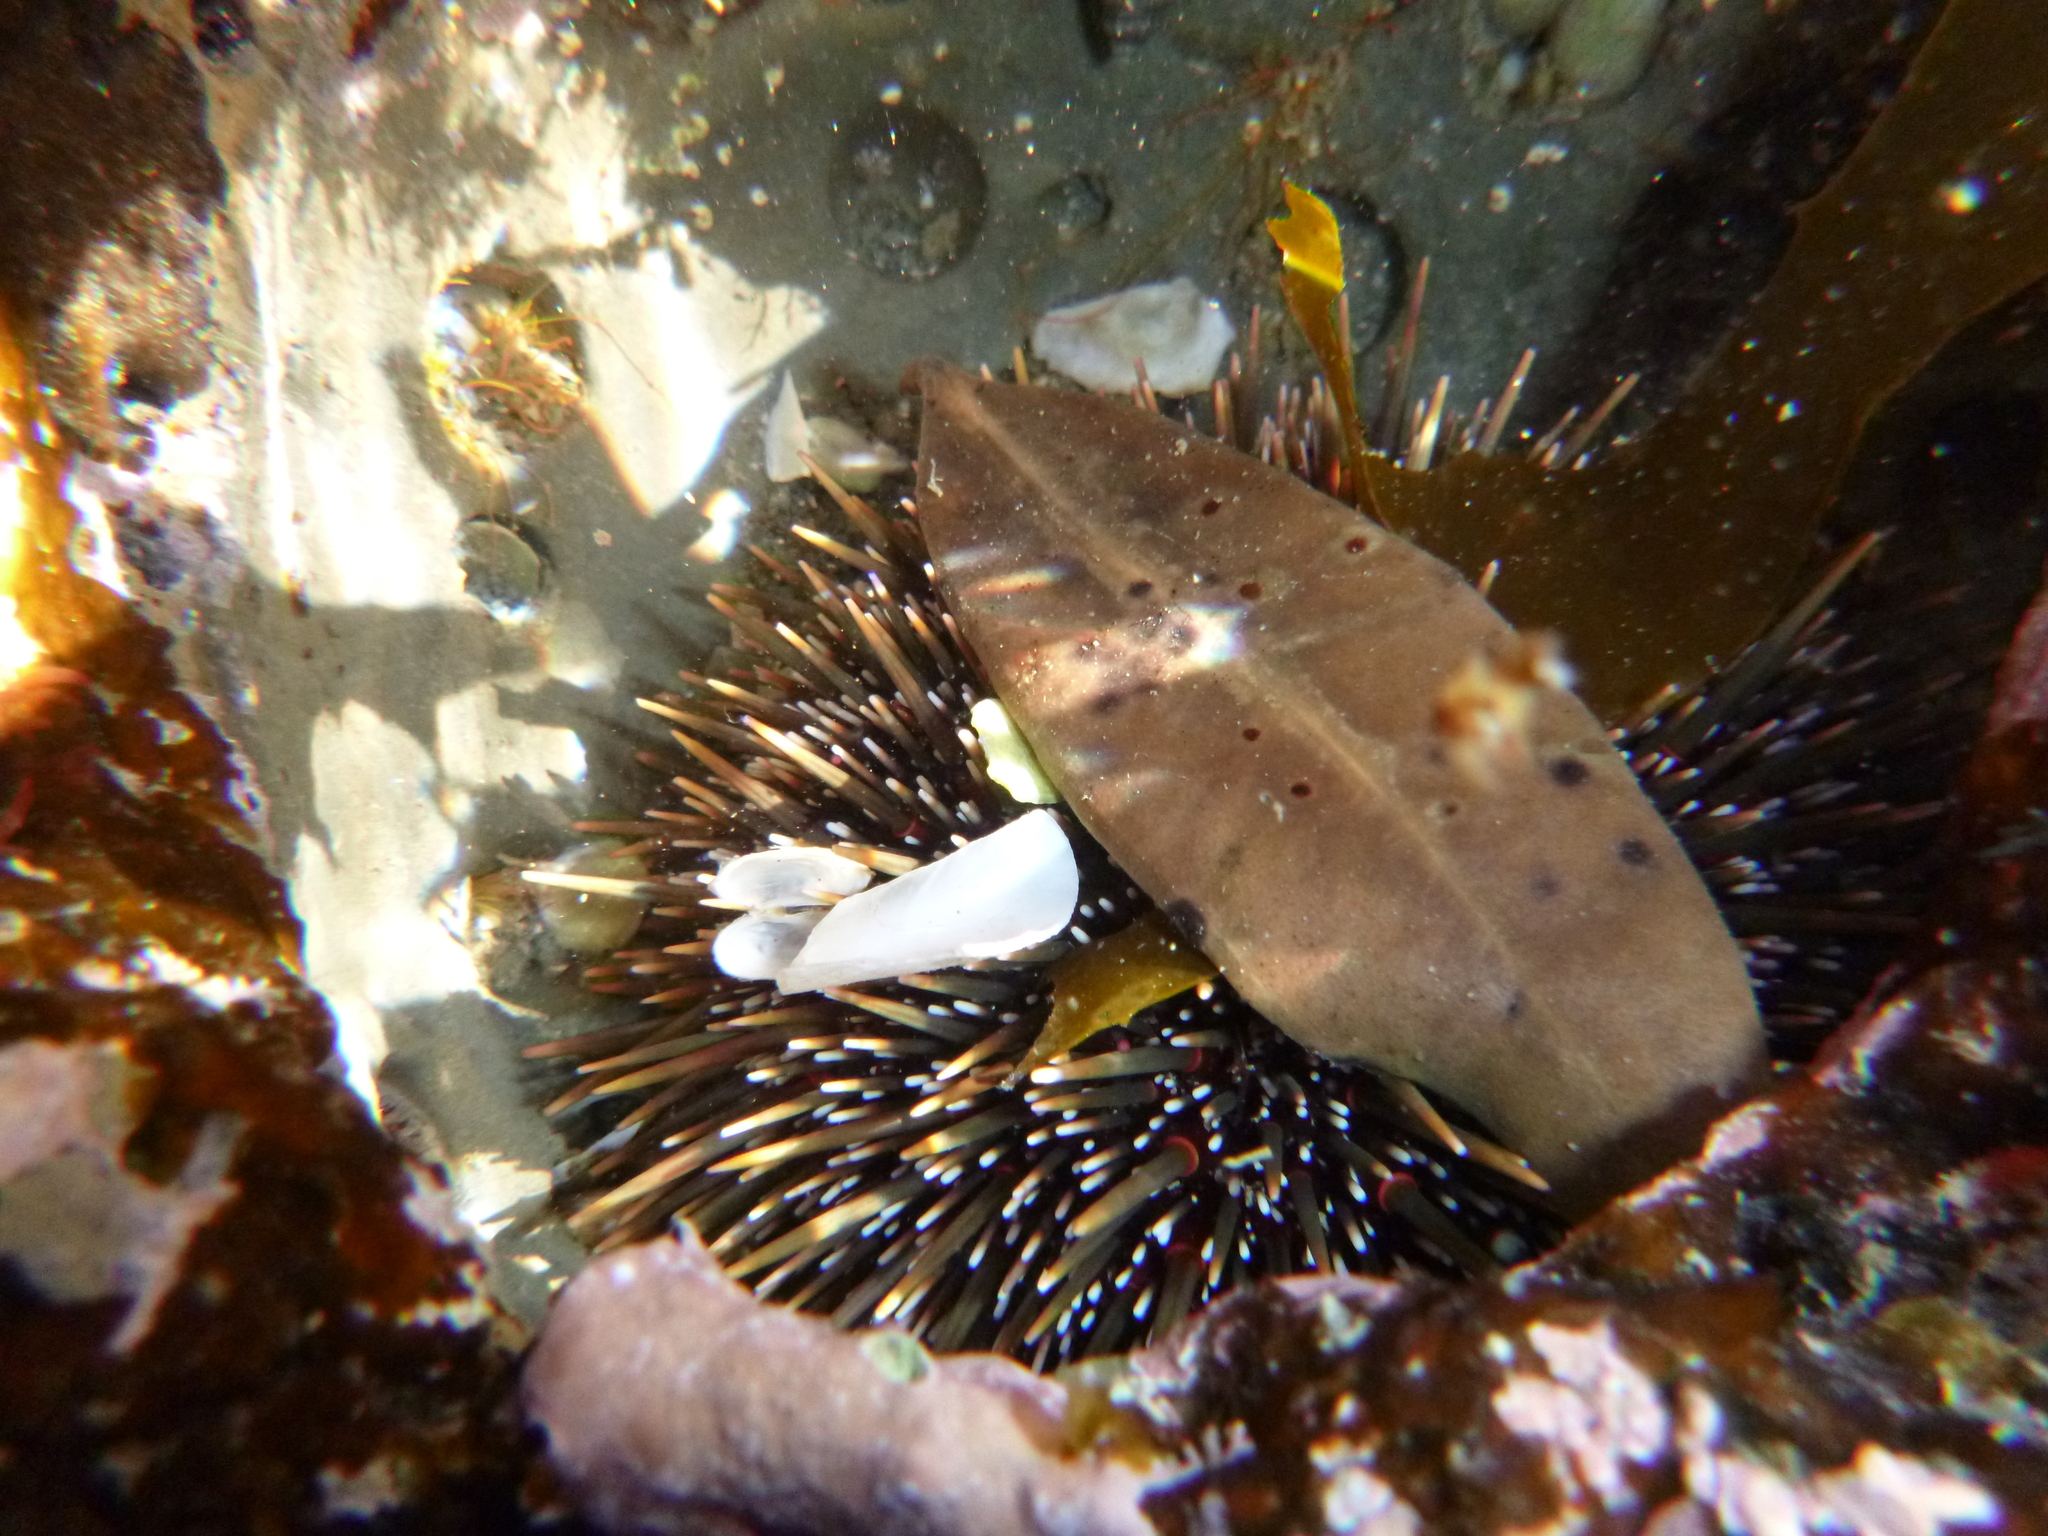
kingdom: Animalia
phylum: Echinodermata
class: Echinoidea
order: Camarodonta
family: Echinometridae
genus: Evechinus
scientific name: Evechinus chloroticus
